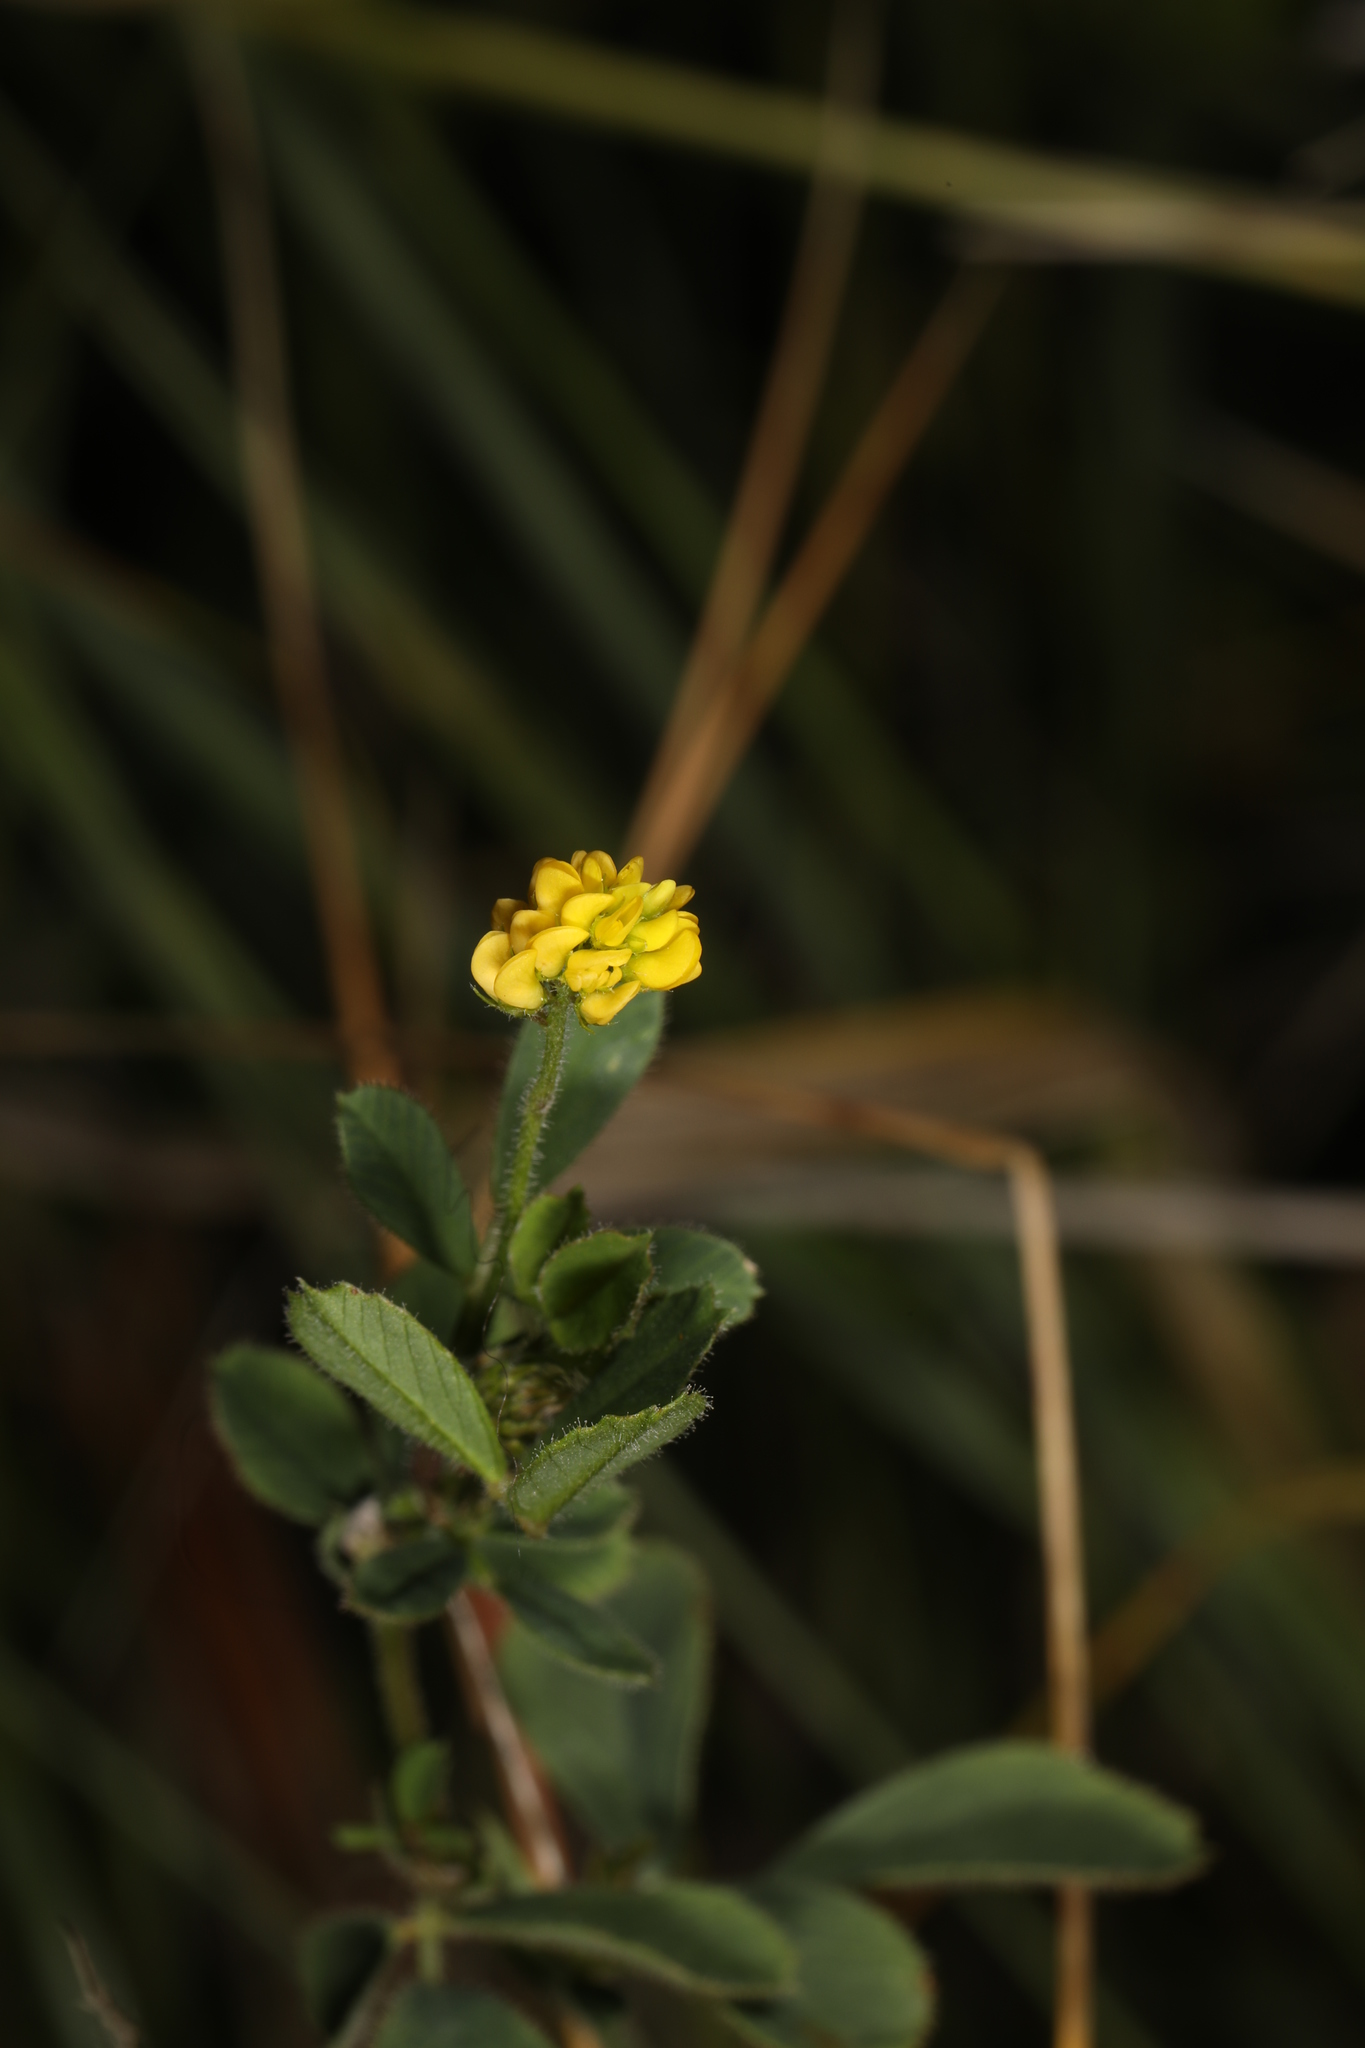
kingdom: Plantae
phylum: Tracheophyta
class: Magnoliopsida
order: Fabales
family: Fabaceae
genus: Medicago
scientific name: Medicago lupulina
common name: Black medick
